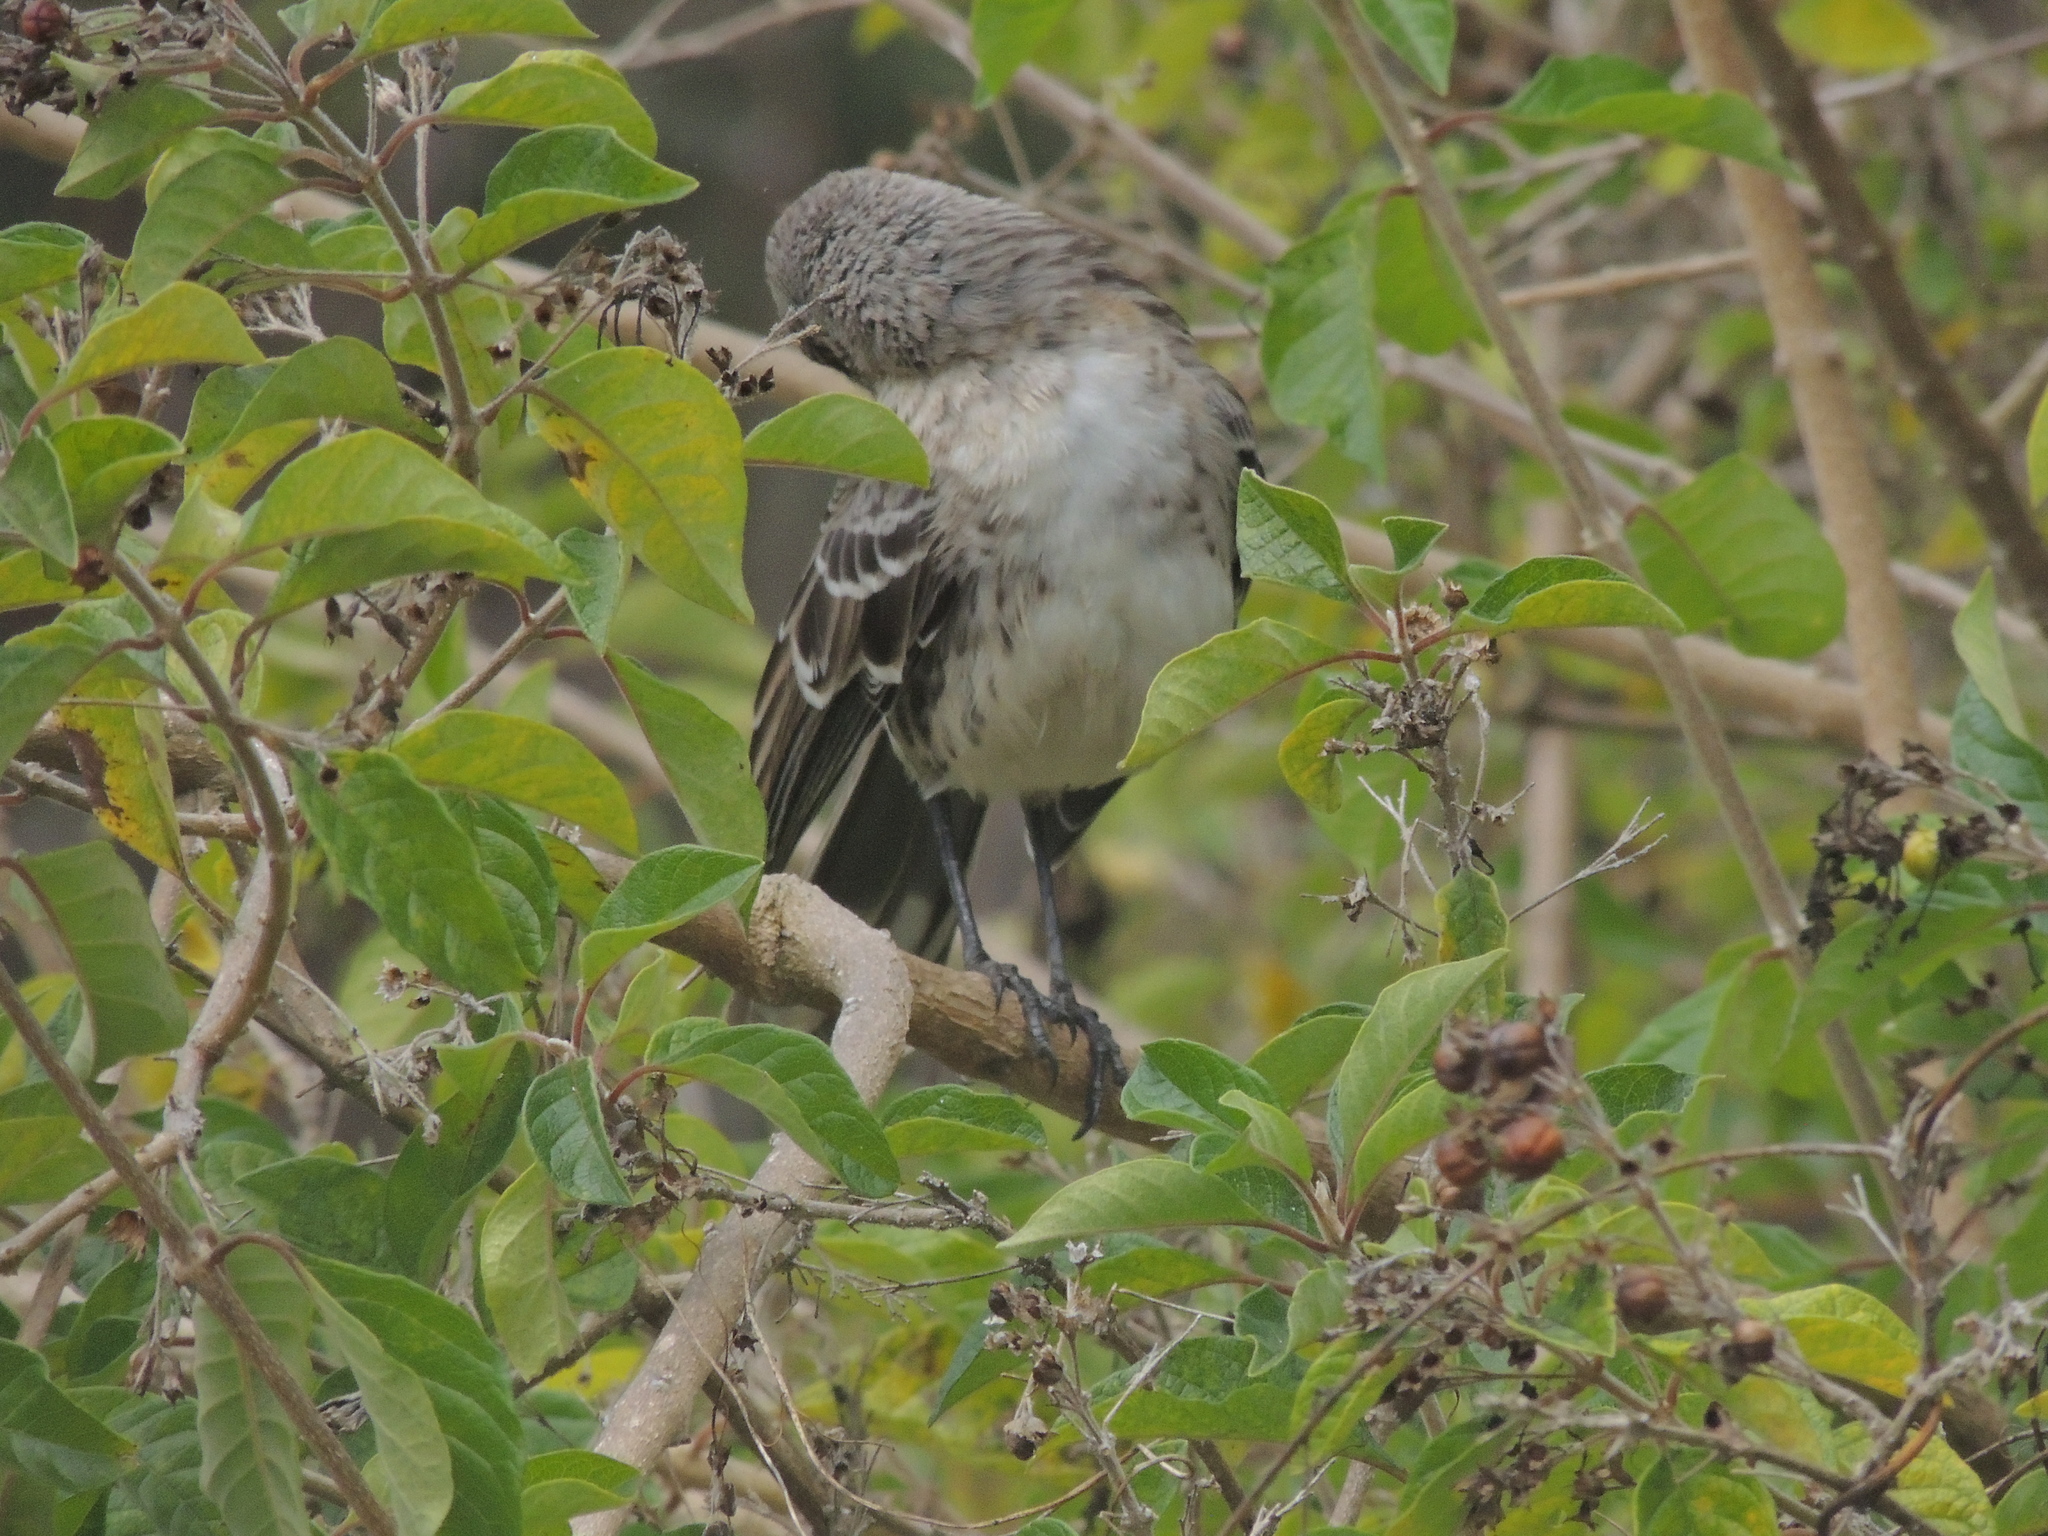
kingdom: Animalia
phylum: Chordata
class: Aves
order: Passeriformes
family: Mimidae
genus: Mimus
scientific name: Mimus melanotis
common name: San cristobal mockingbird
